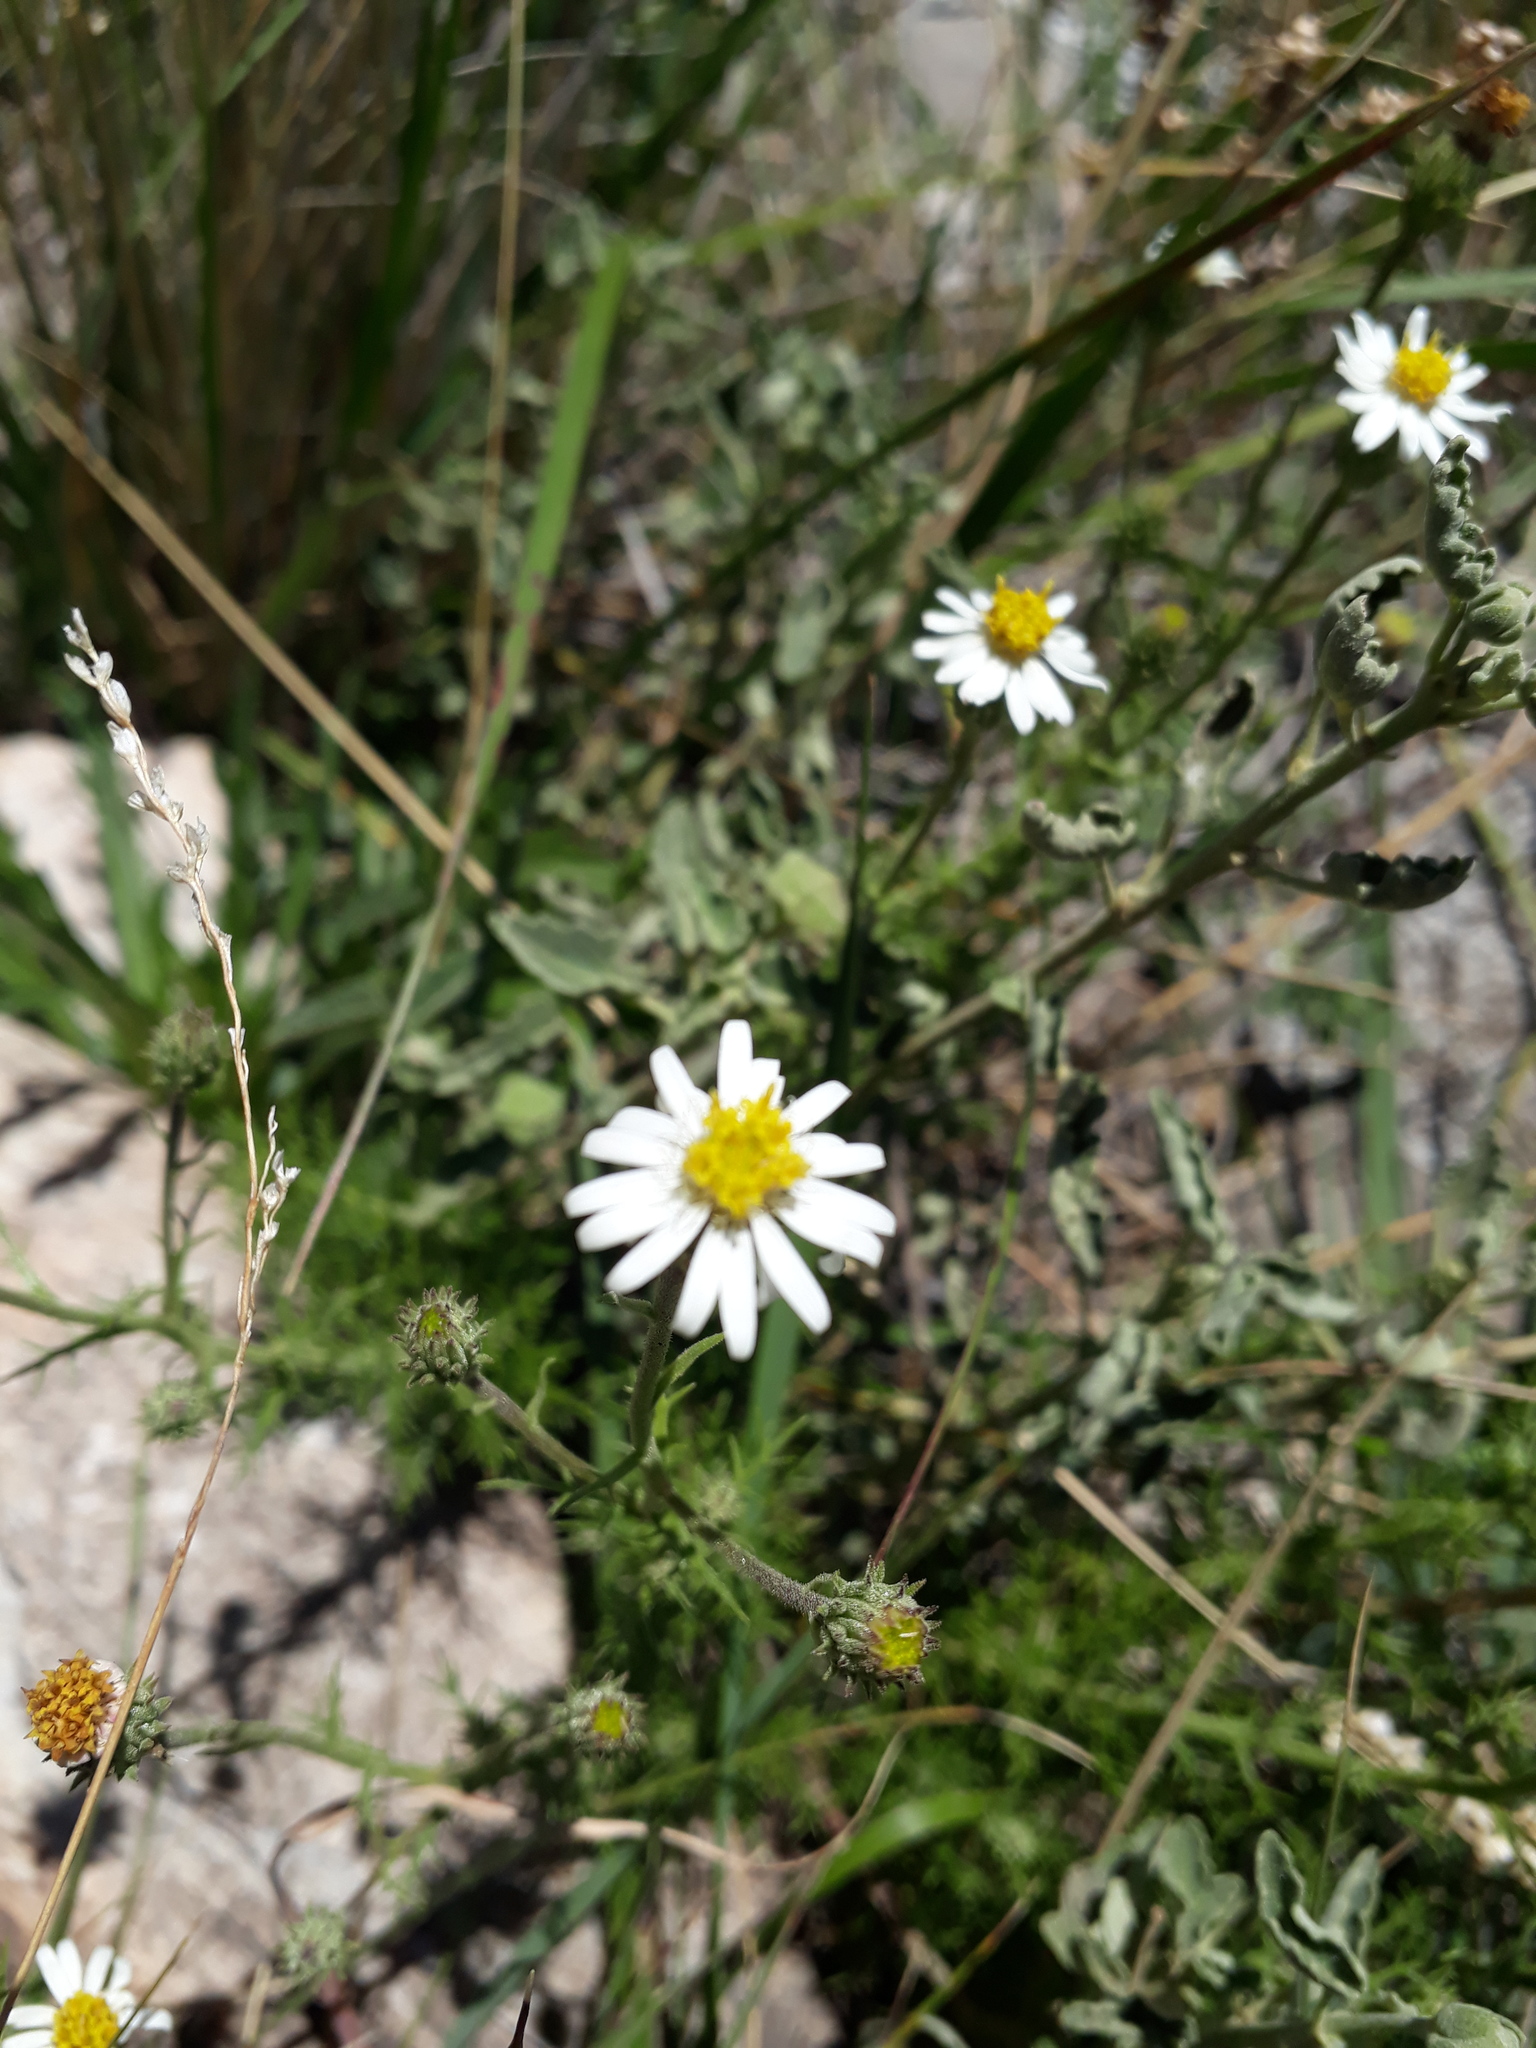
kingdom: Plantae
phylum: Tracheophyta
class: Magnoliopsida
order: Asterales
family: Asteraceae
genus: Sommerfeltia
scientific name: Sommerfeltia spinulosa
